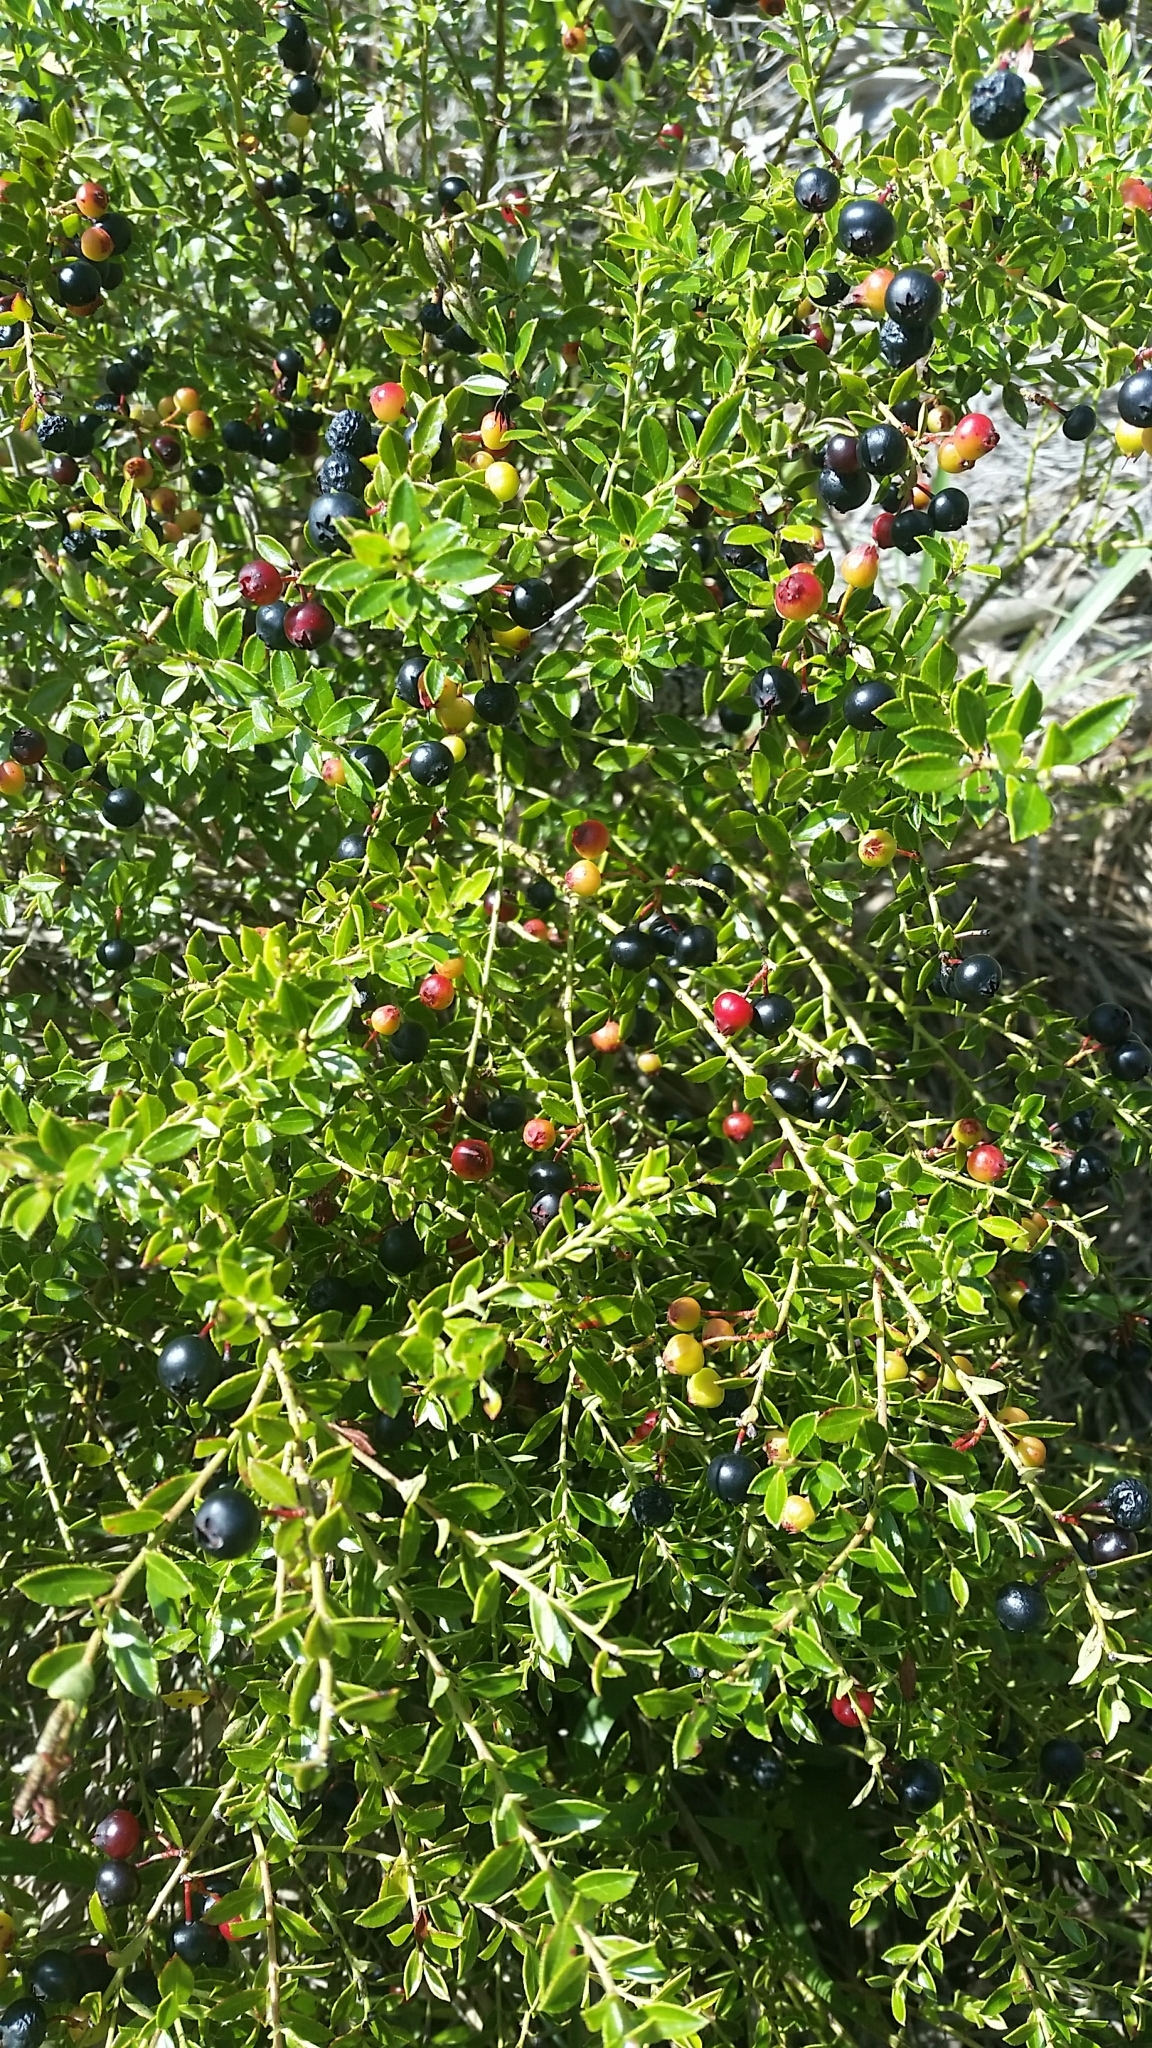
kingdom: Plantae
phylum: Tracheophyta
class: Magnoliopsida
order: Ericales
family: Ericaceae
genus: Vaccinium
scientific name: Vaccinium myrsinites
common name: Evergreen blueberry
